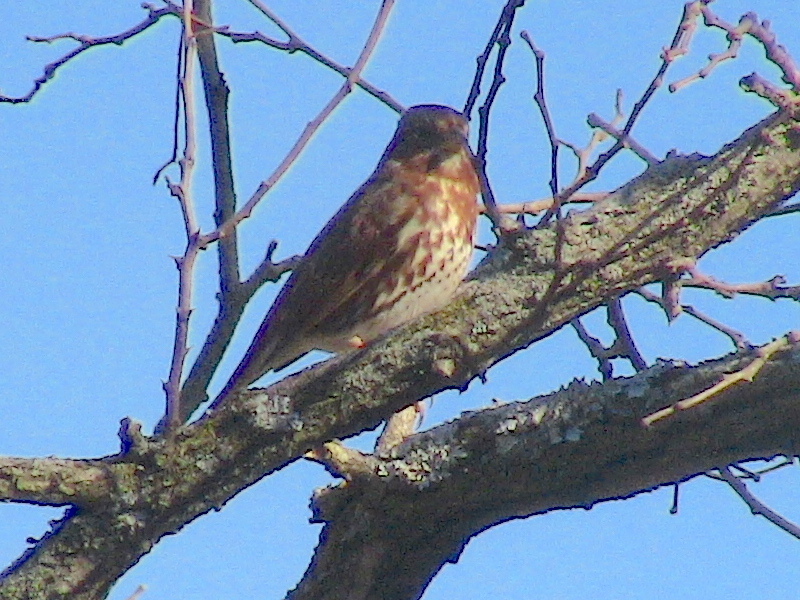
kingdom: Animalia
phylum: Chordata
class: Aves
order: Passeriformes
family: Passerellidae
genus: Passerella
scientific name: Passerella iliaca
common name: Fox sparrow
